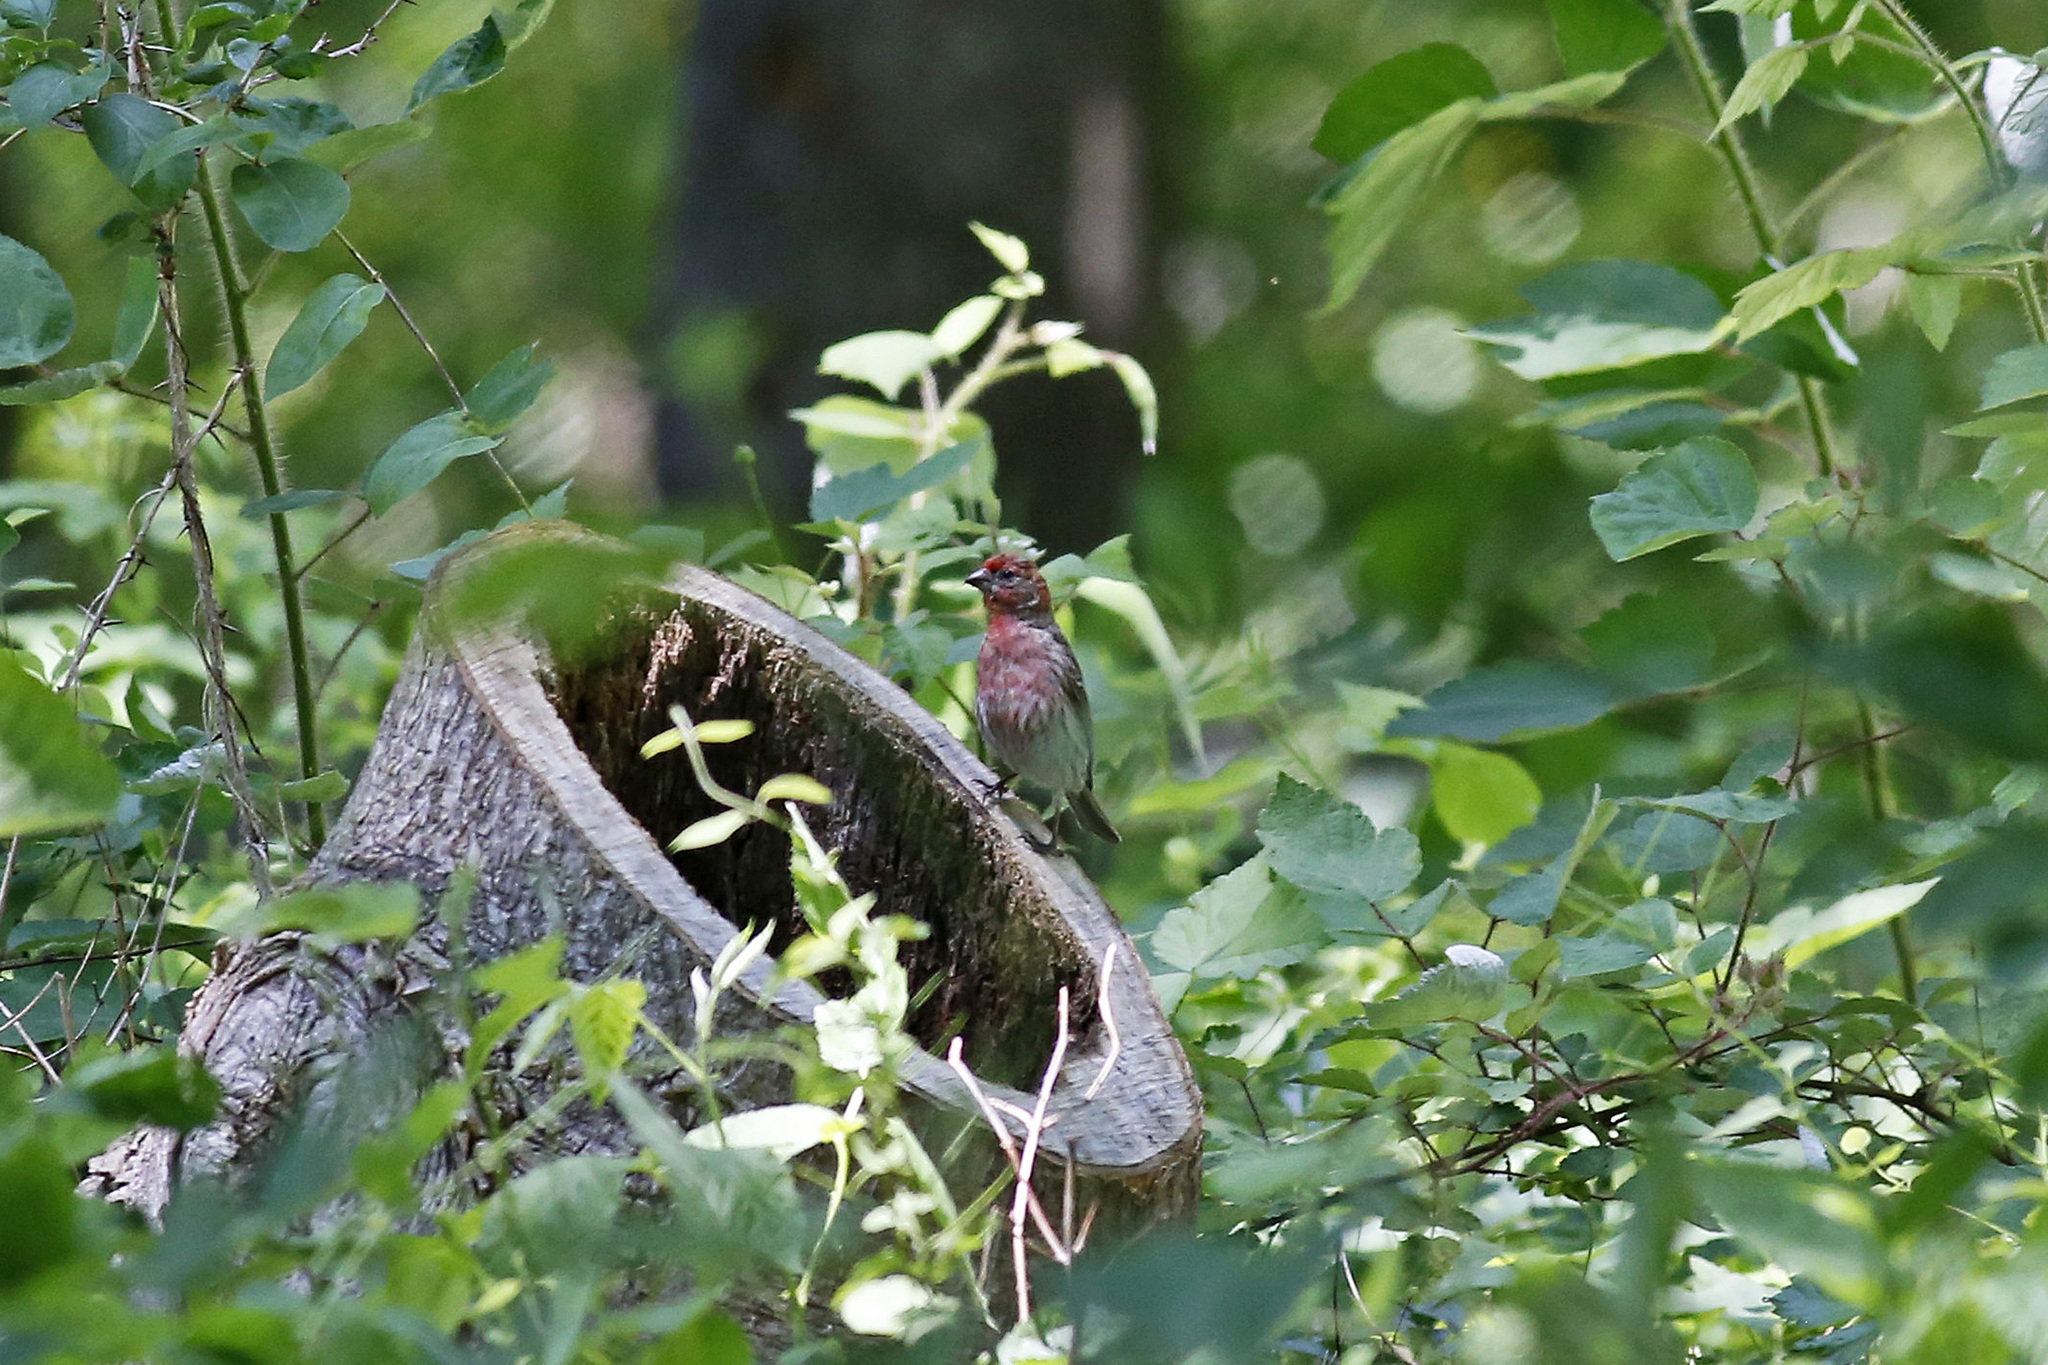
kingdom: Animalia
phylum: Chordata
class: Aves
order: Passeriformes
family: Fringillidae
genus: Haemorhous
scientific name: Haemorhous mexicanus
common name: House finch
